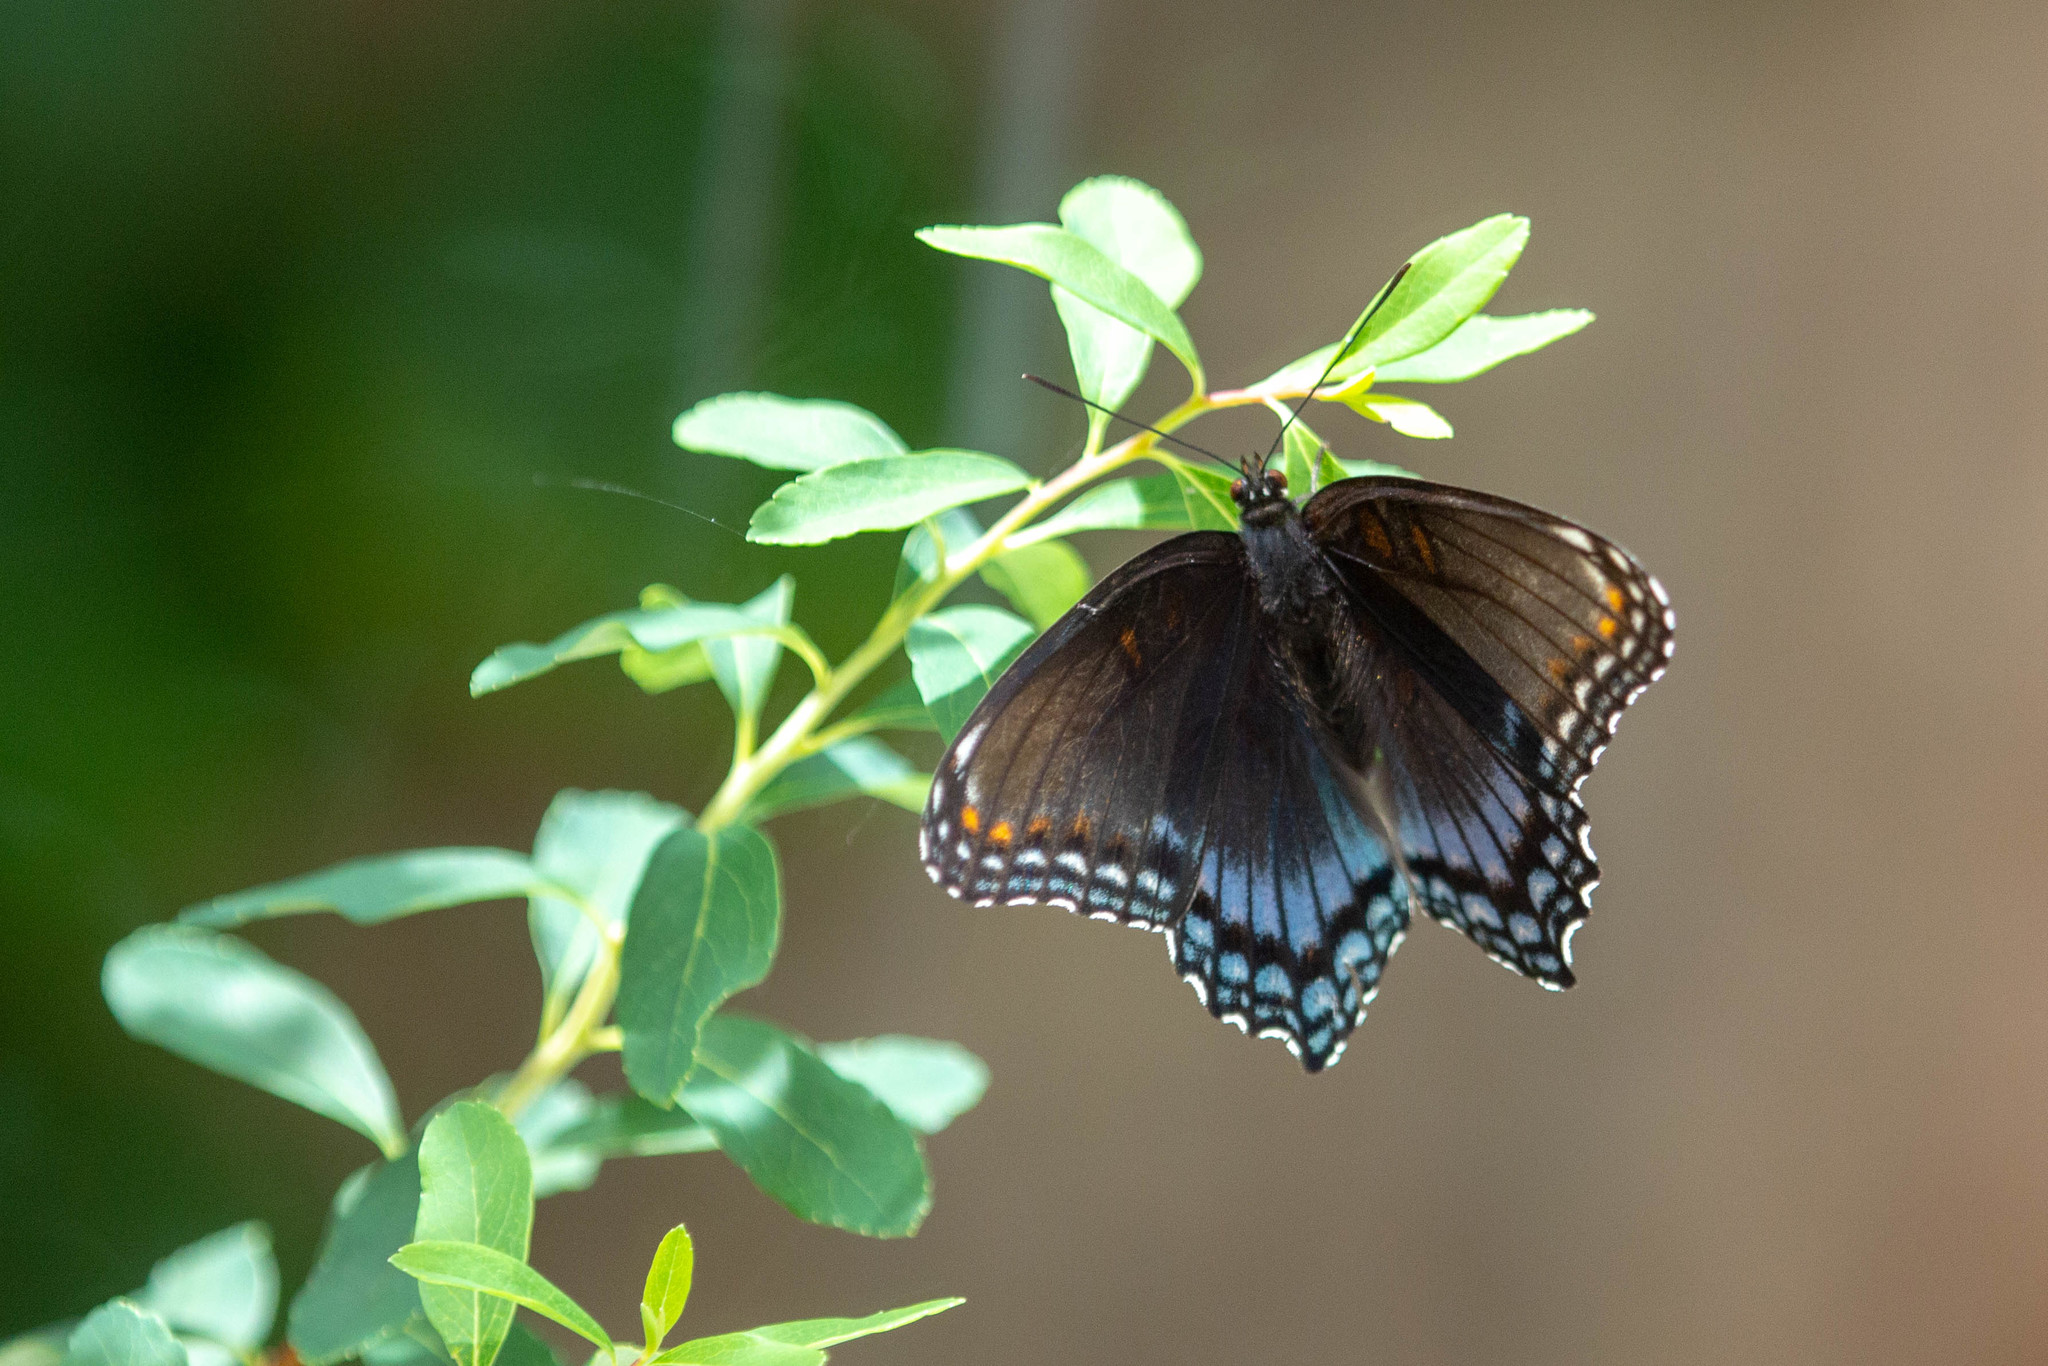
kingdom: Animalia
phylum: Arthropoda
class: Insecta
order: Lepidoptera
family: Nymphalidae
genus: Limenitis
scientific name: Limenitis astyanax
